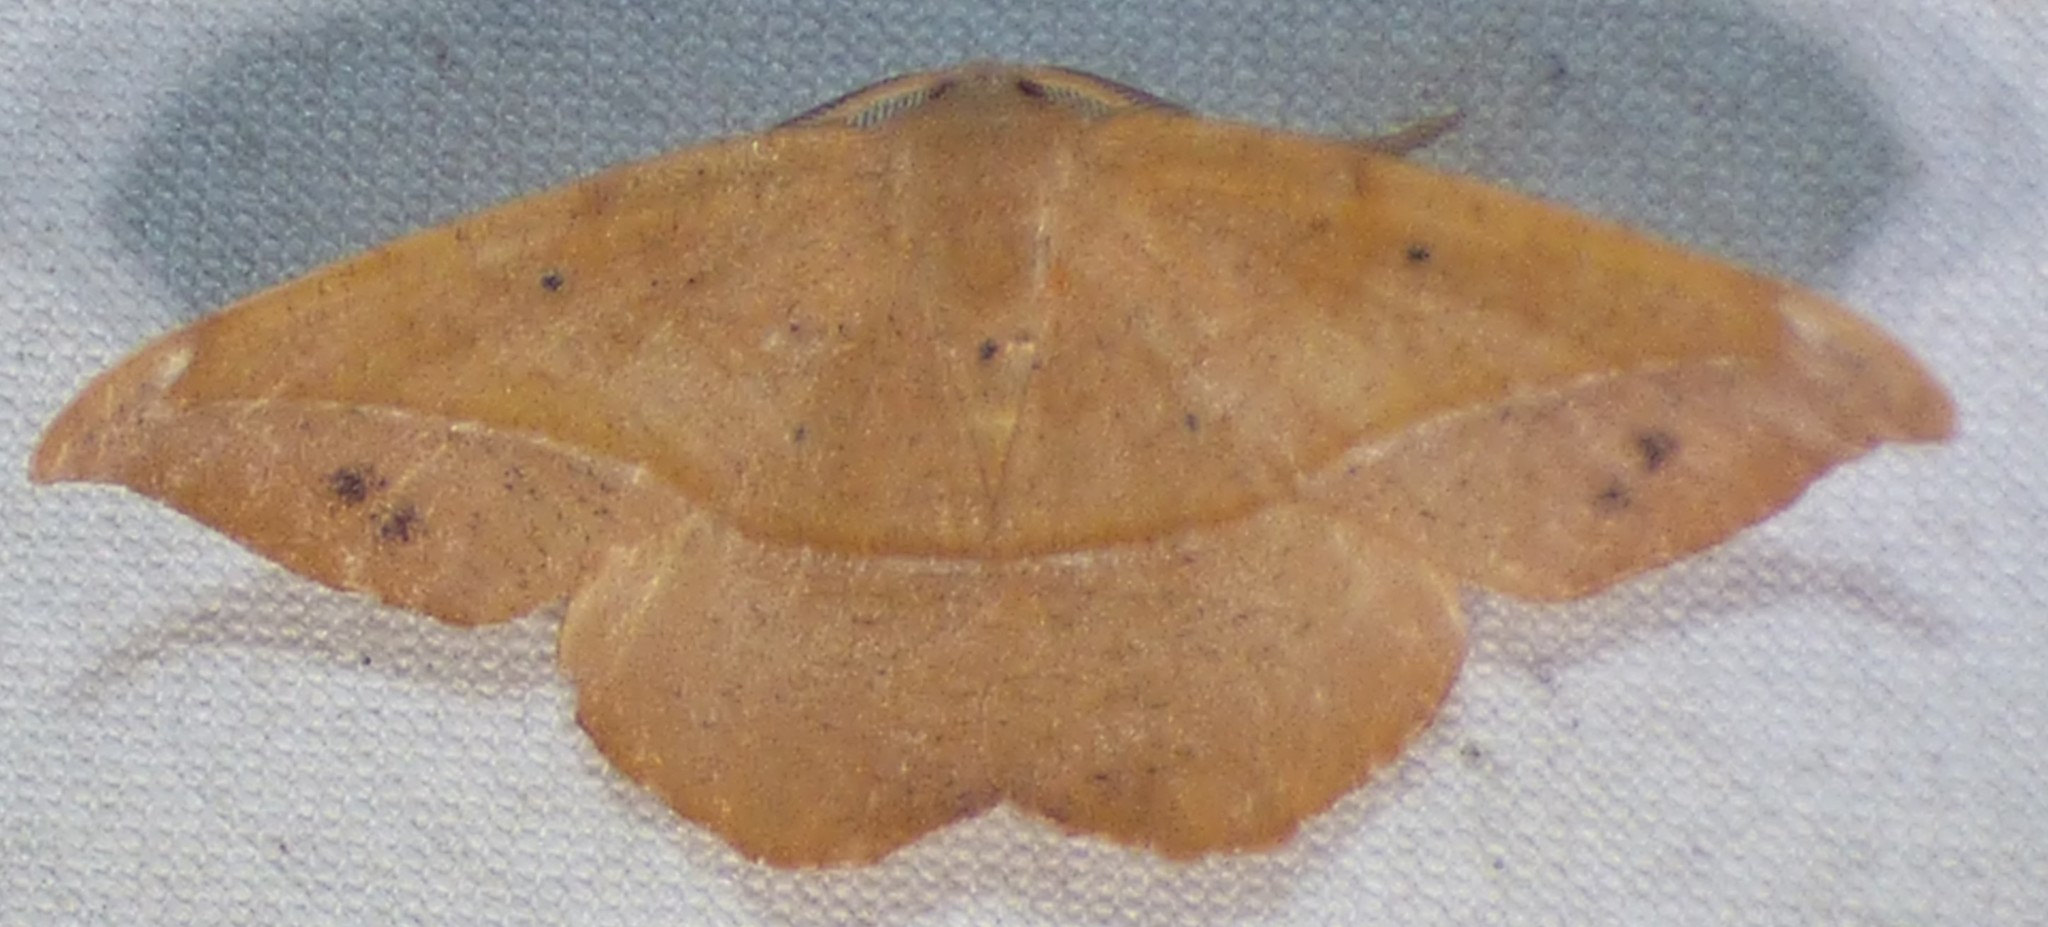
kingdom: Animalia
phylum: Arthropoda
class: Insecta
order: Lepidoptera
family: Geometridae
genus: Patalene
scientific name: Patalene olyzonaria
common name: Juniper geometer moth
